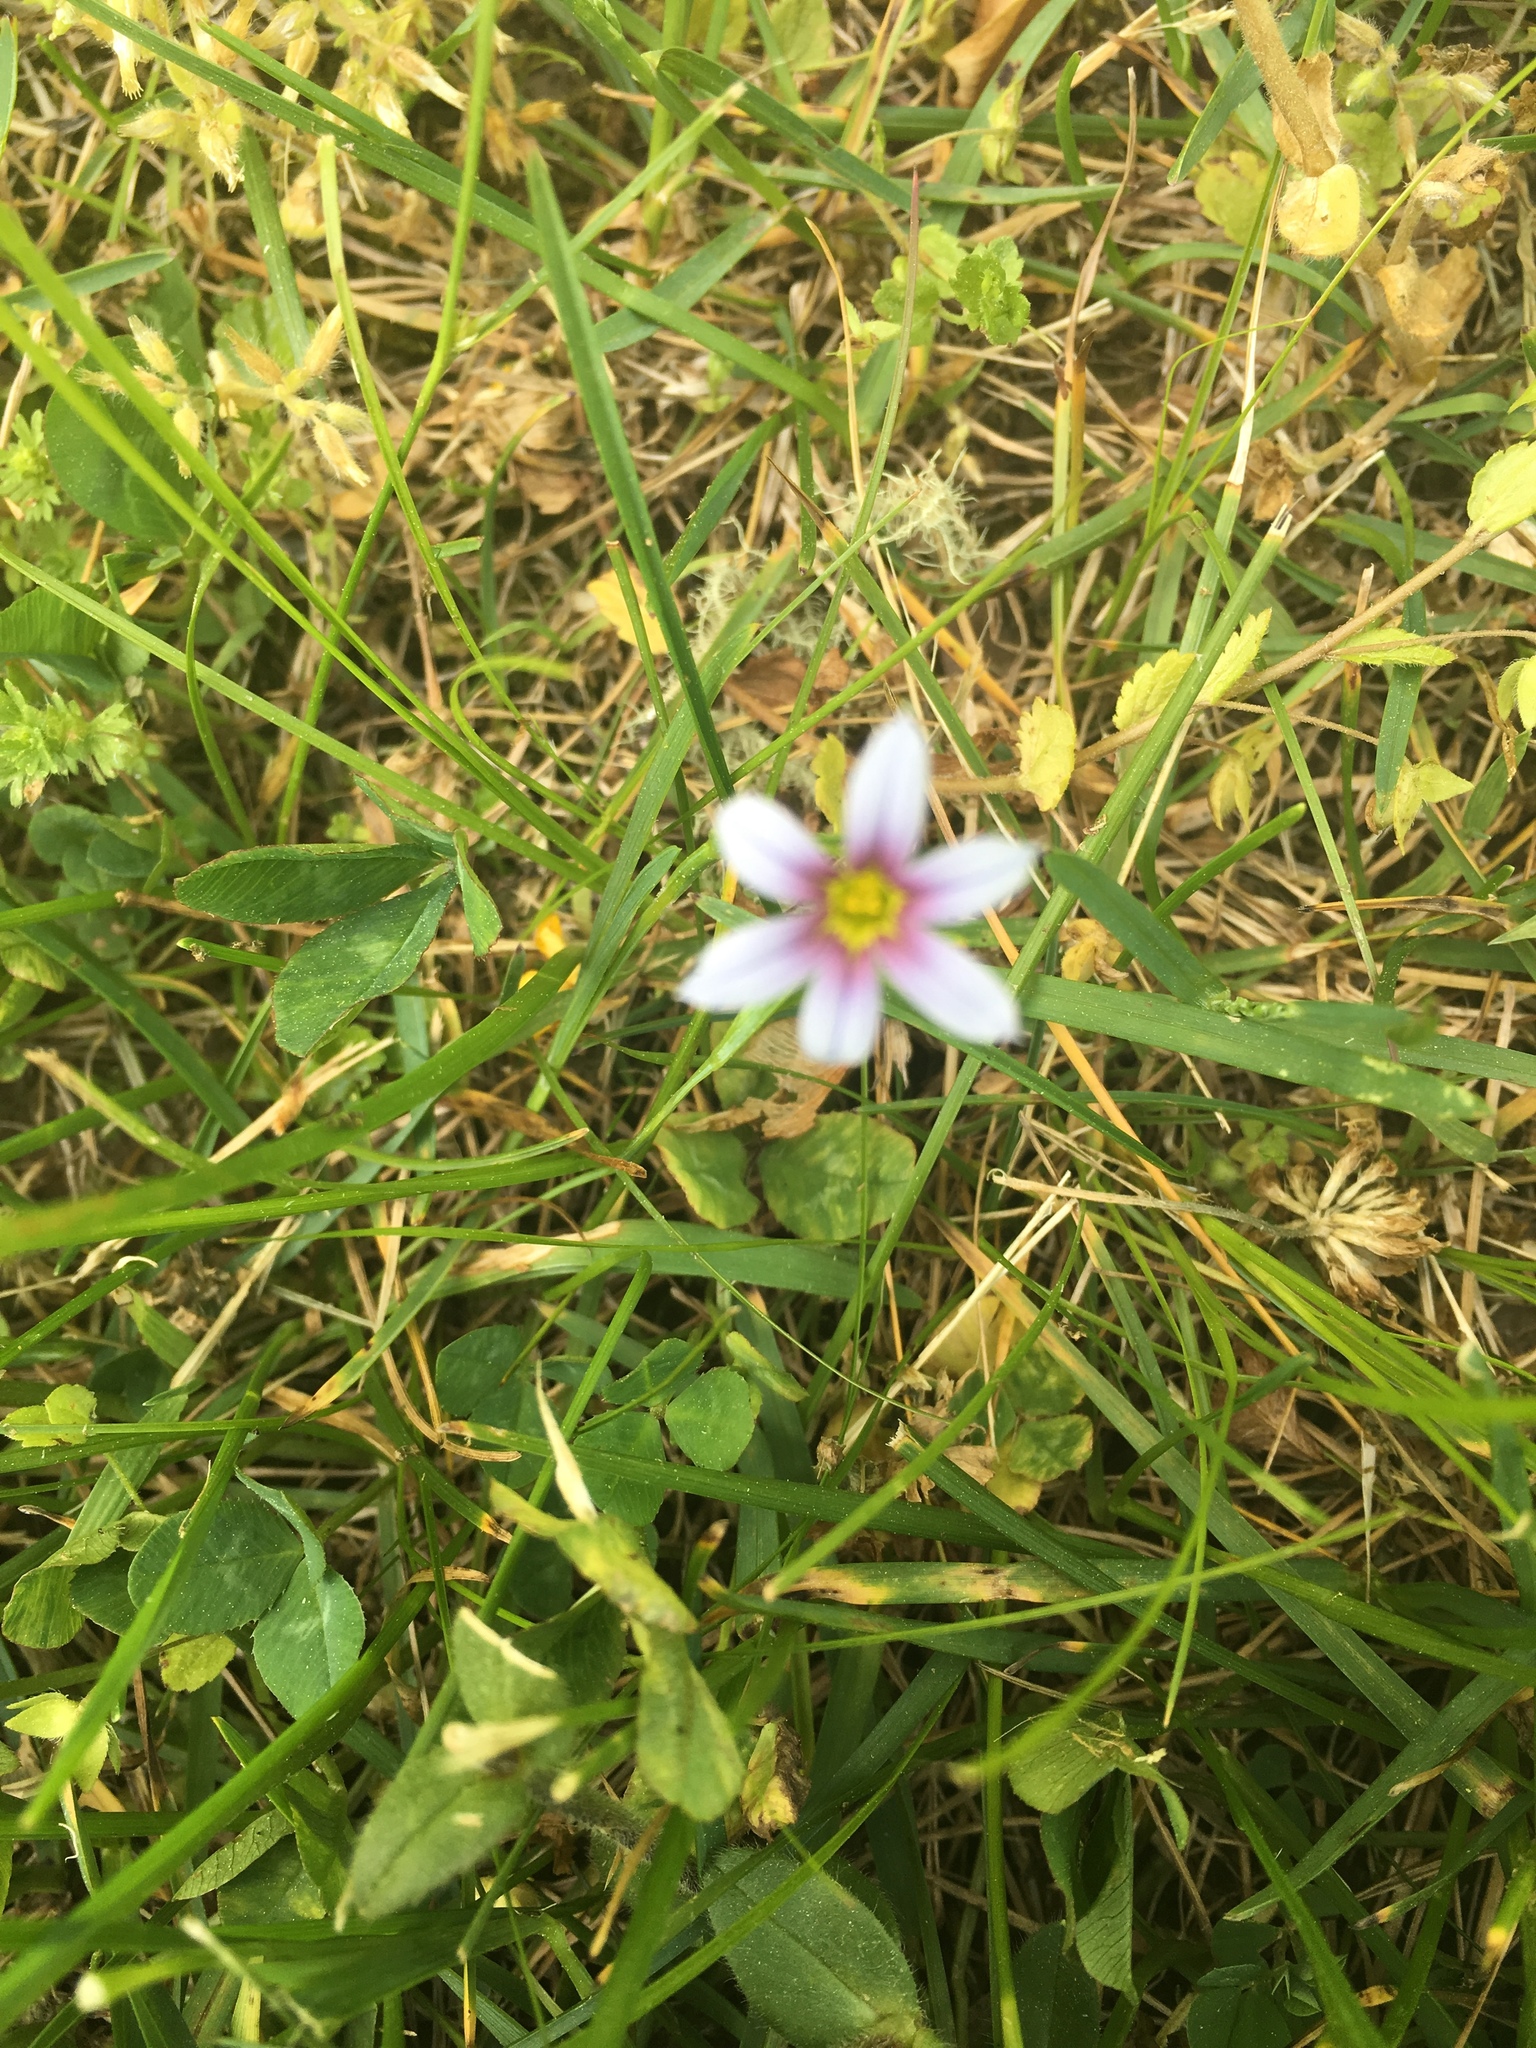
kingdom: Plantae
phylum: Tracheophyta
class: Liliopsida
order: Asparagales
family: Iridaceae
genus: Sisyrinchium
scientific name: Sisyrinchium micranthum
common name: Bermuda pigroot
